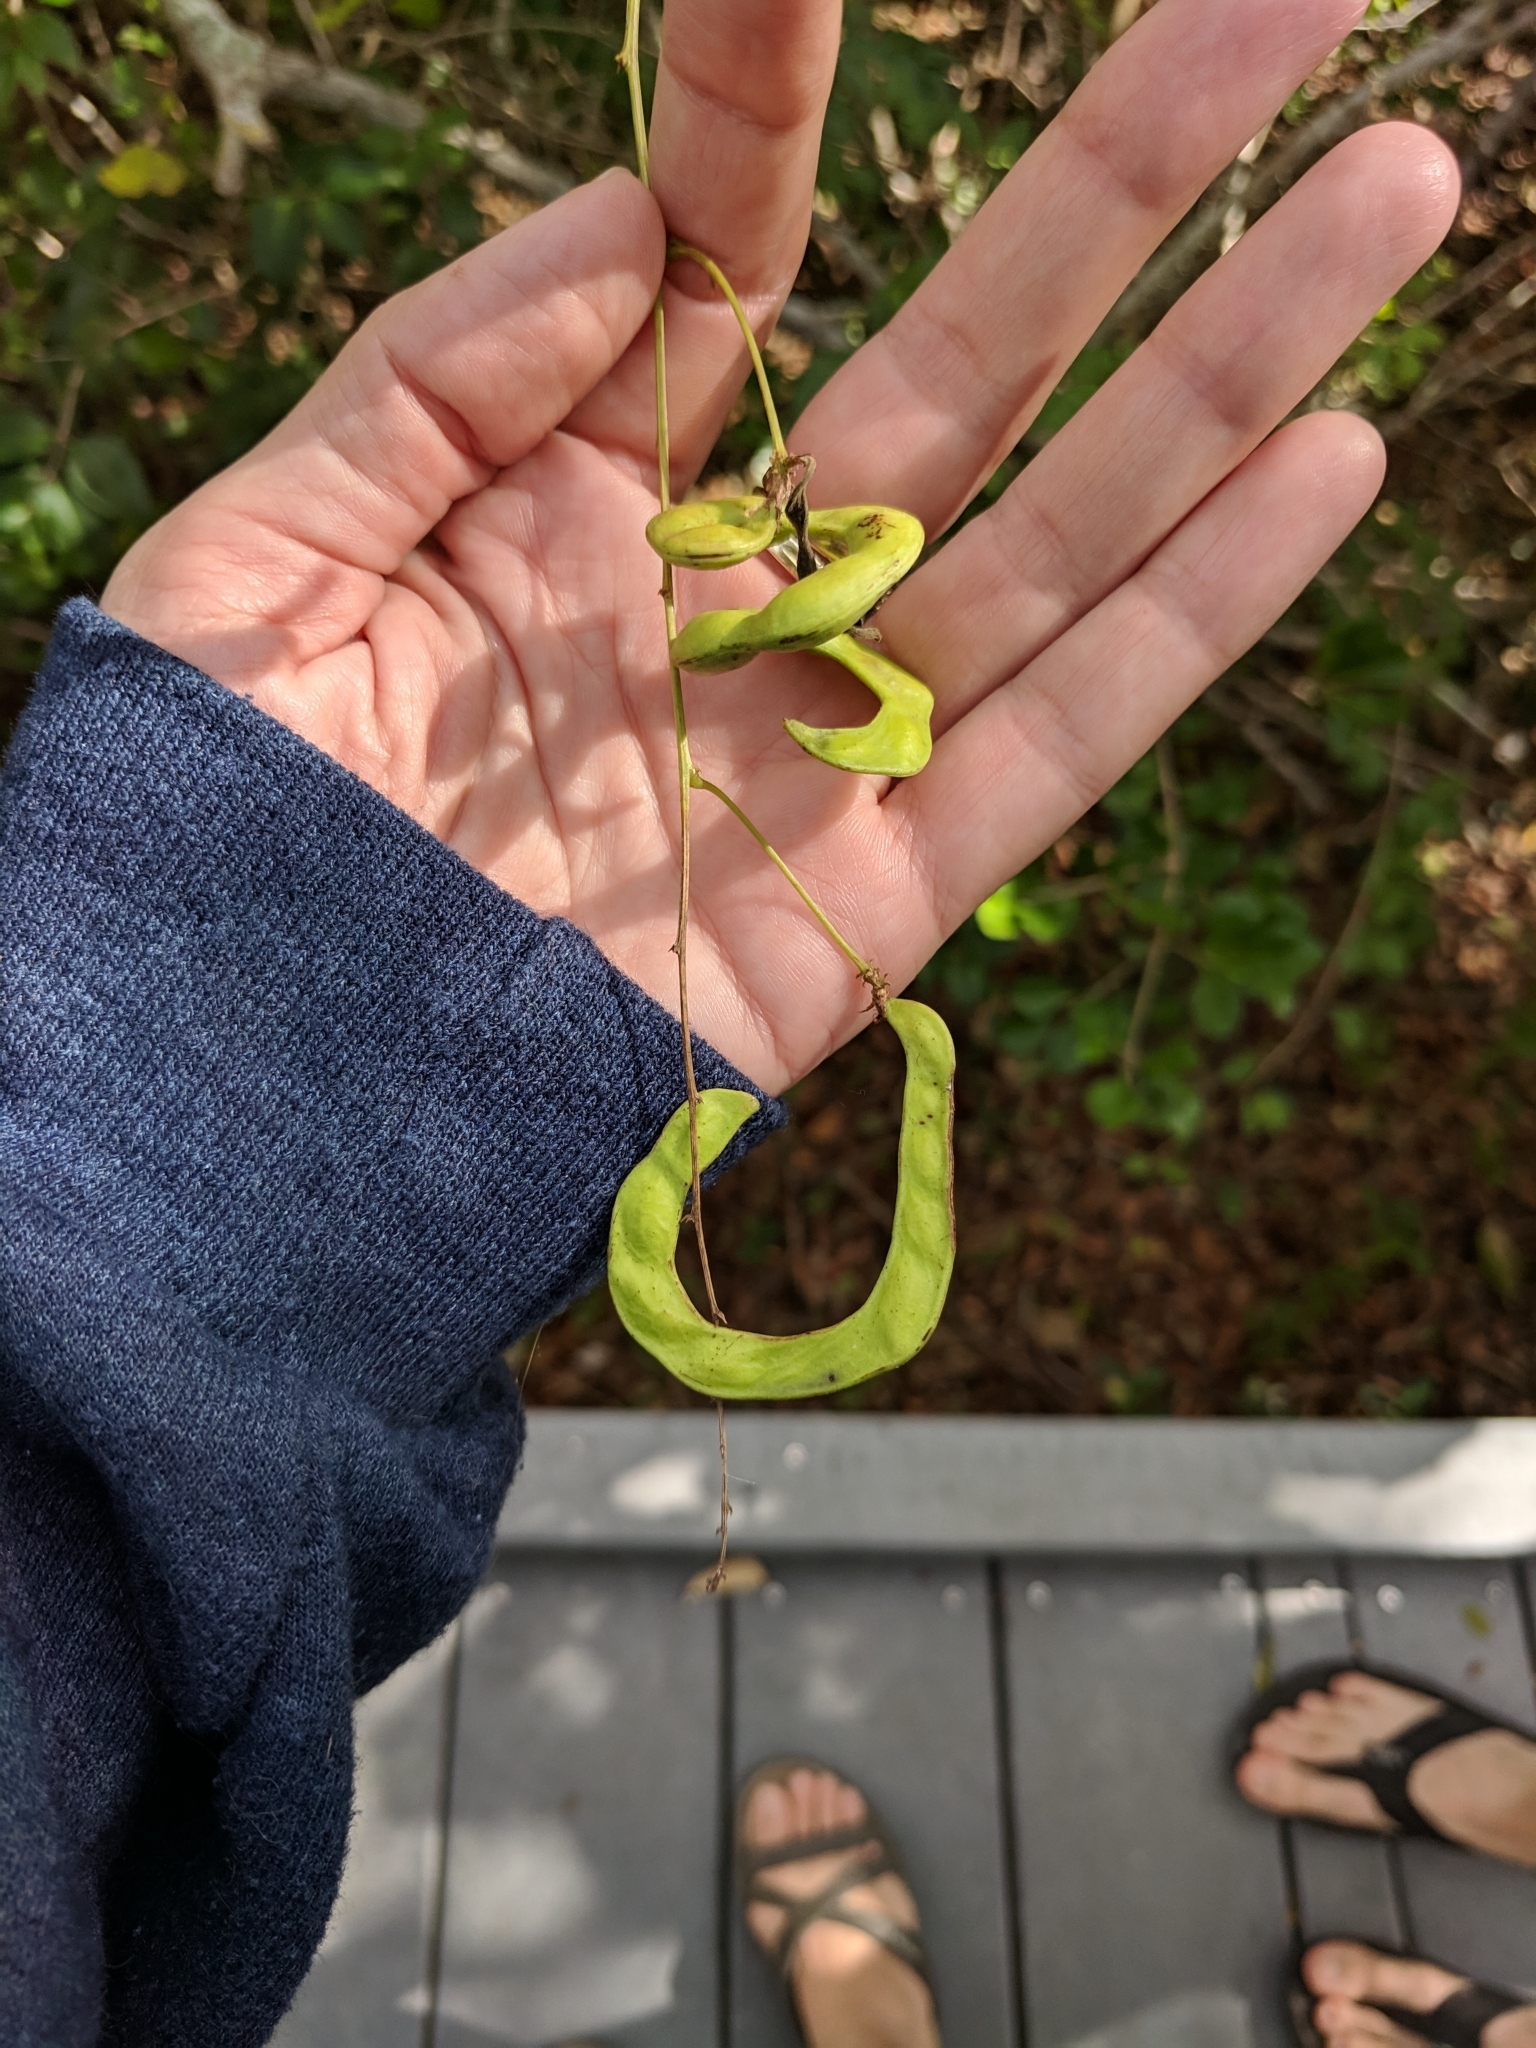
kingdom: Plantae
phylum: Tracheophyta
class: Magnoliopsida
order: Fabales
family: Fabaceae
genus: Pithecellobium
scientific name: Pithecellobium unguis-cati
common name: Cat's-claw
